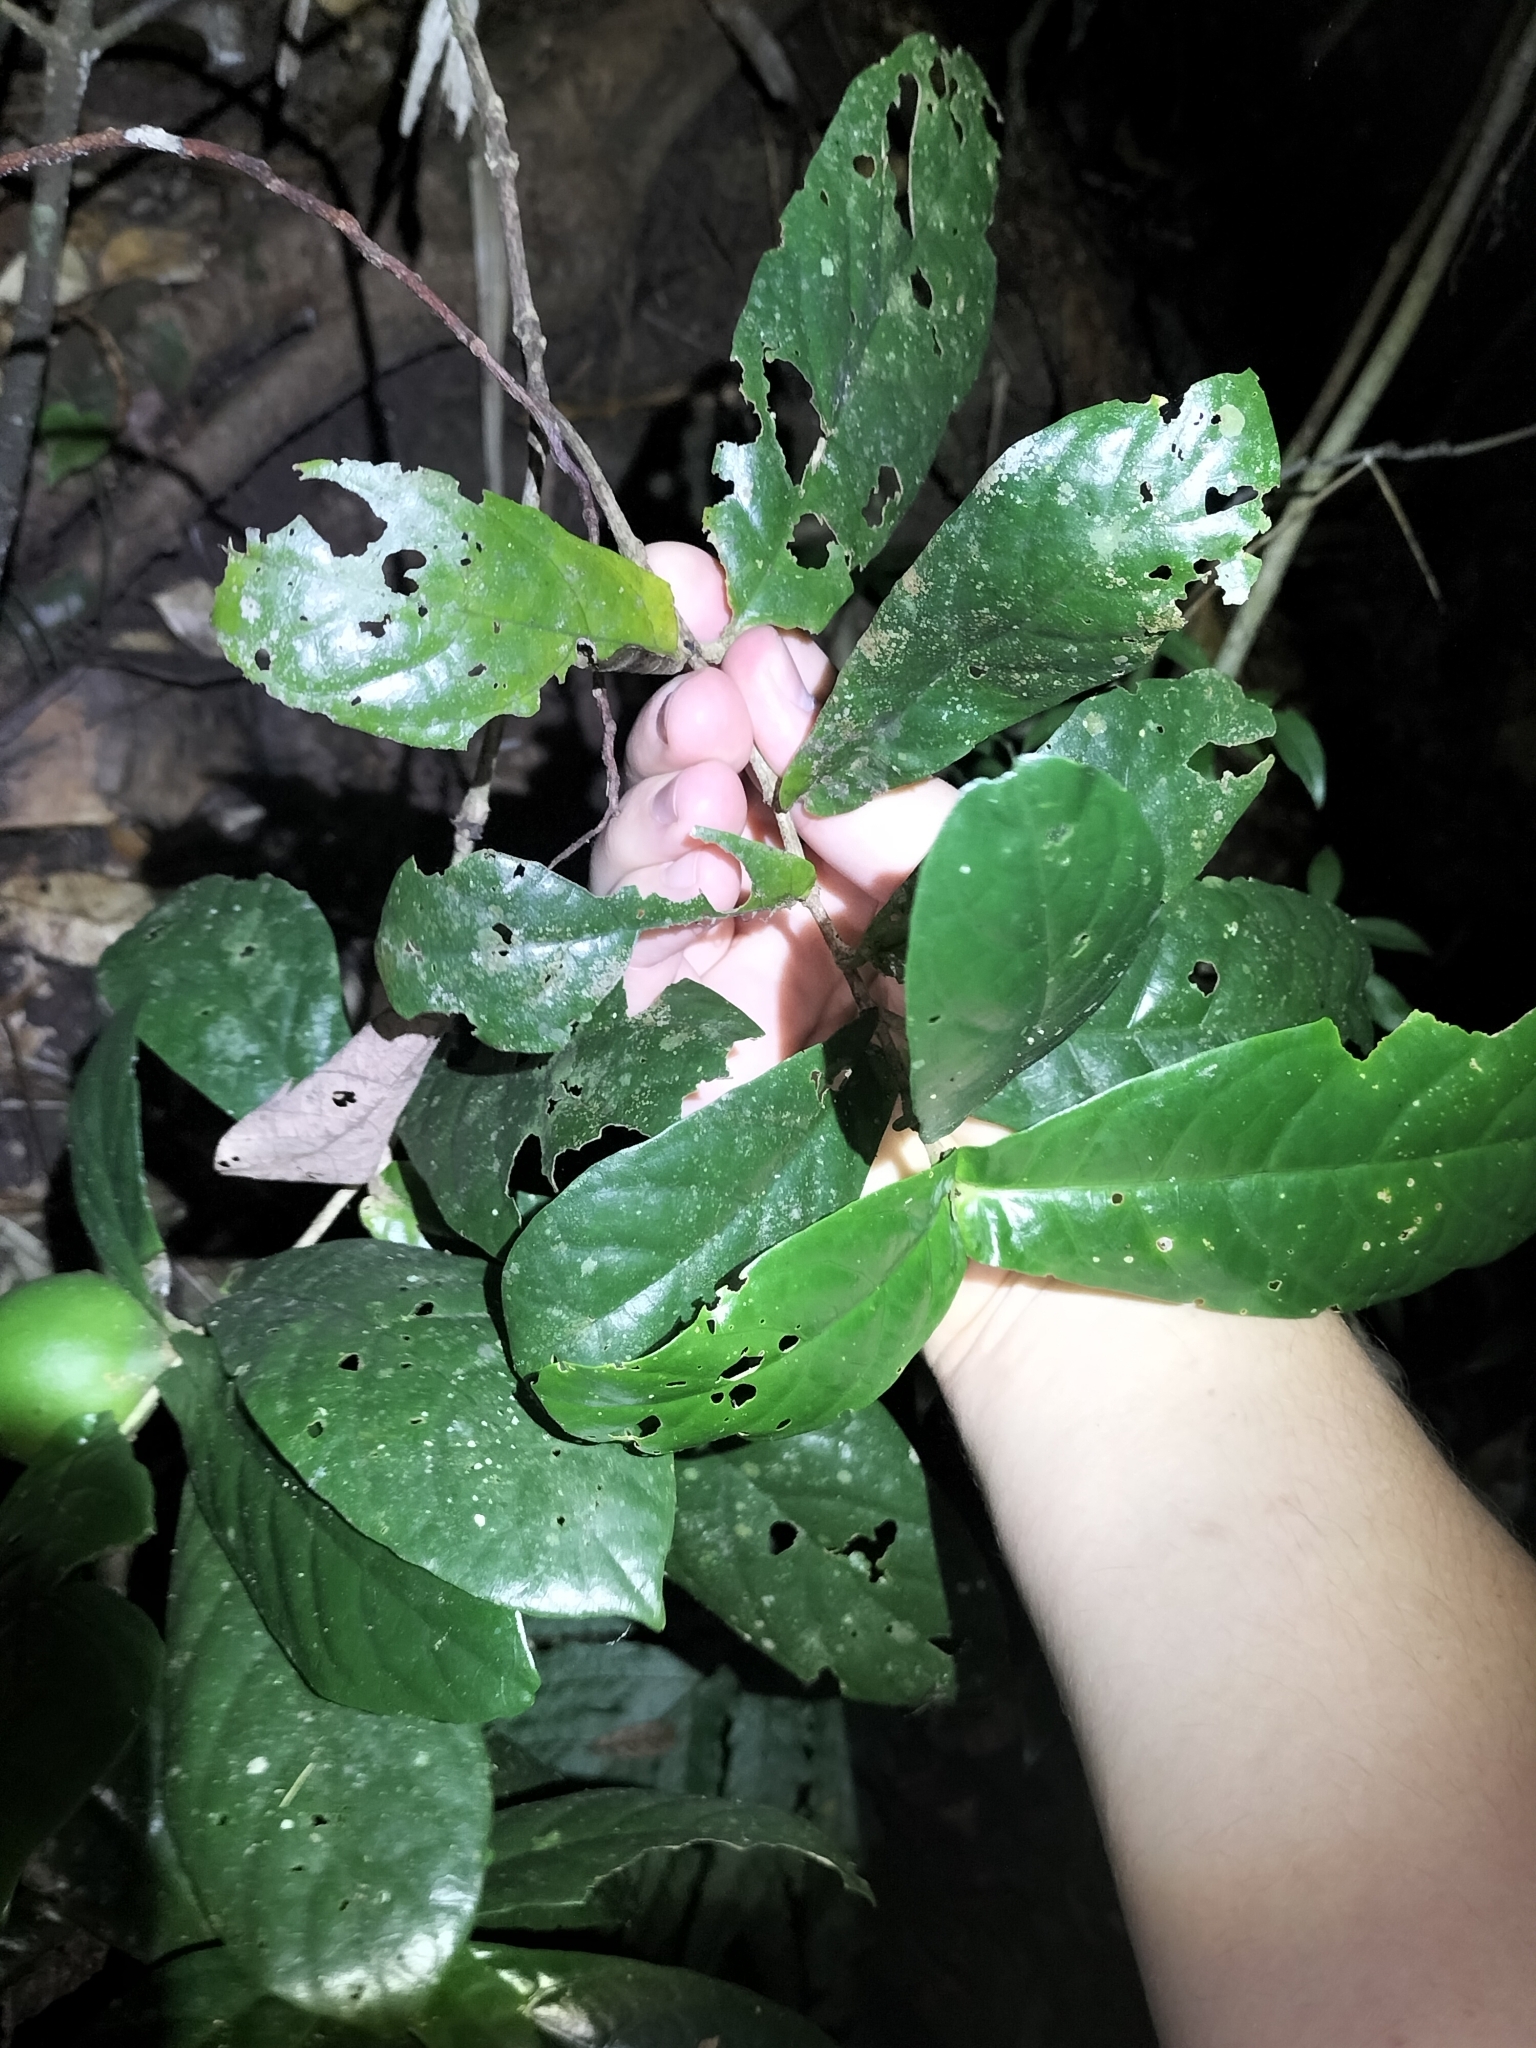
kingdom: Plantae
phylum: Tracheophyta
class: Magnoliopsida
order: Gentianales
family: Rubiaceae
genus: Atractocarpus
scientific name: Atractocarpus merikin
